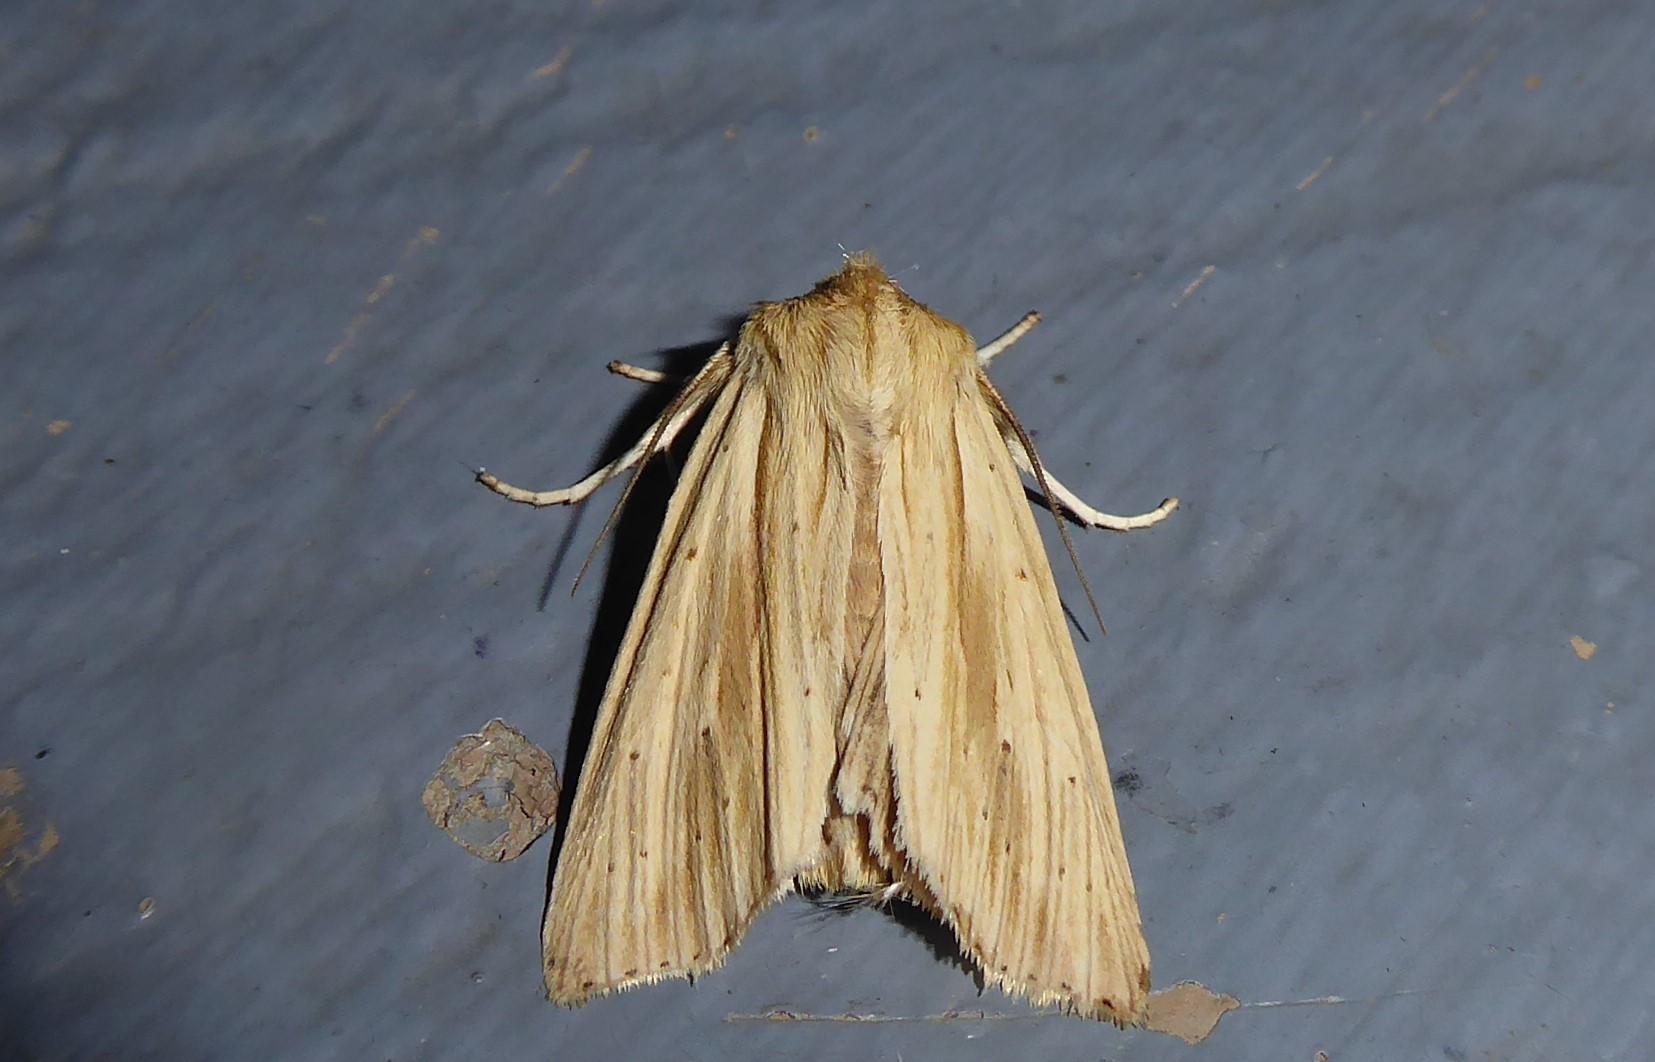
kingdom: Animalia
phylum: Arthropoda
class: Insecta
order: Lepidoptera
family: Noctuidae
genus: Ichneutica
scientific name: Ichneutica semivittata
